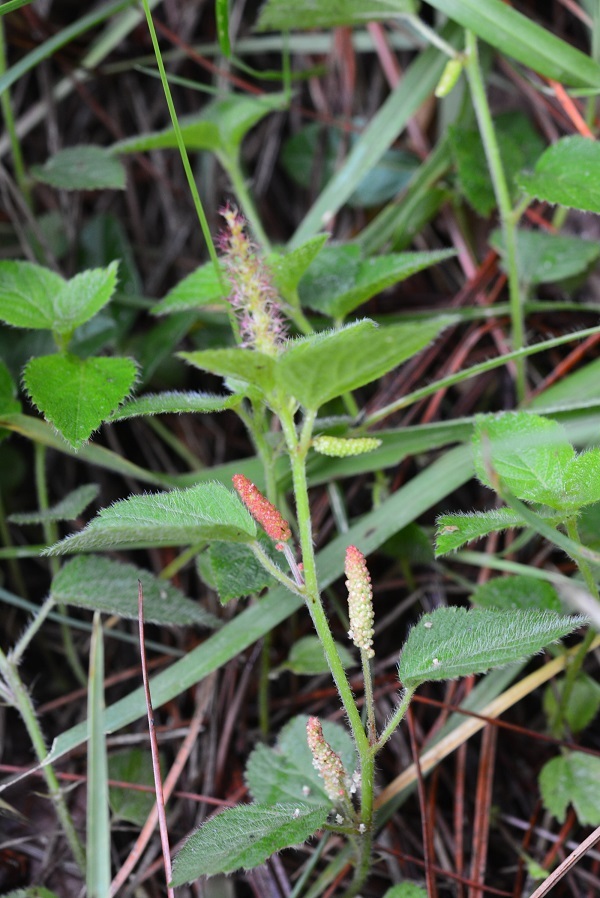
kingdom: Plantae
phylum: Tracheophyta
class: Magnoliopsida
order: Malpighiales
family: Euphorbiaceae
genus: Acalypha
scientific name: Acalypha phleoides
